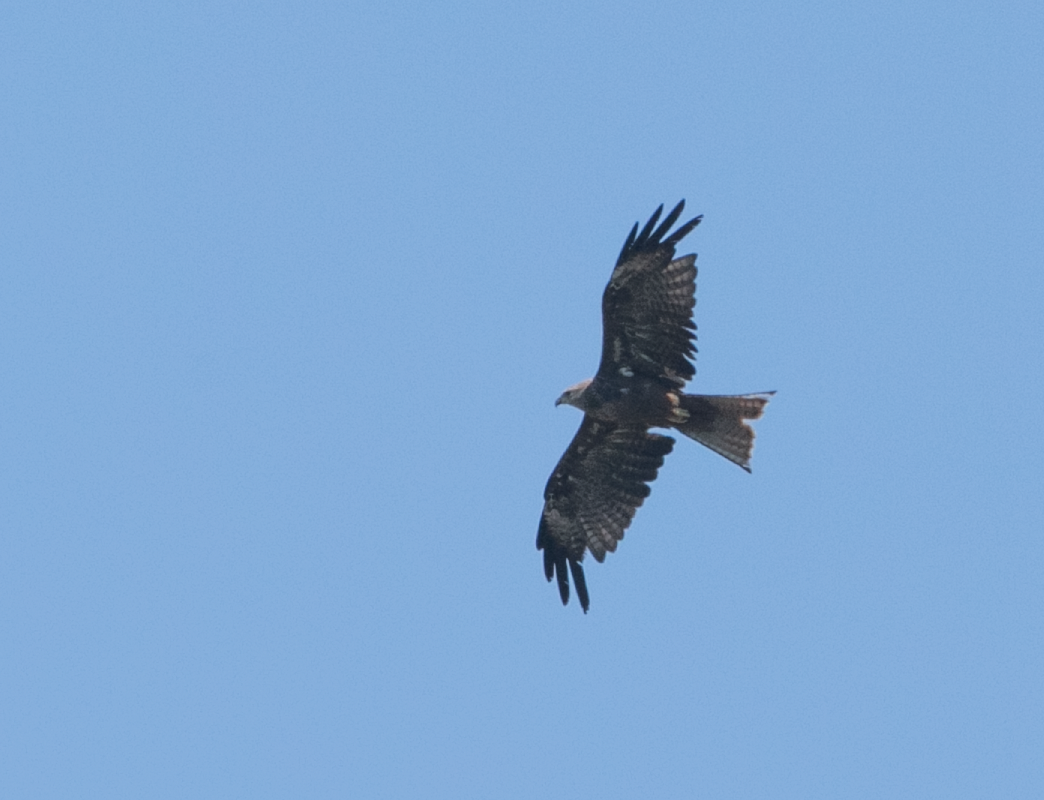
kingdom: Animalia
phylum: Chordata
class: Aves
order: Accipitriformes
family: Accipitridae
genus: Milvus
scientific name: Milvus migrans
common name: Black kite
